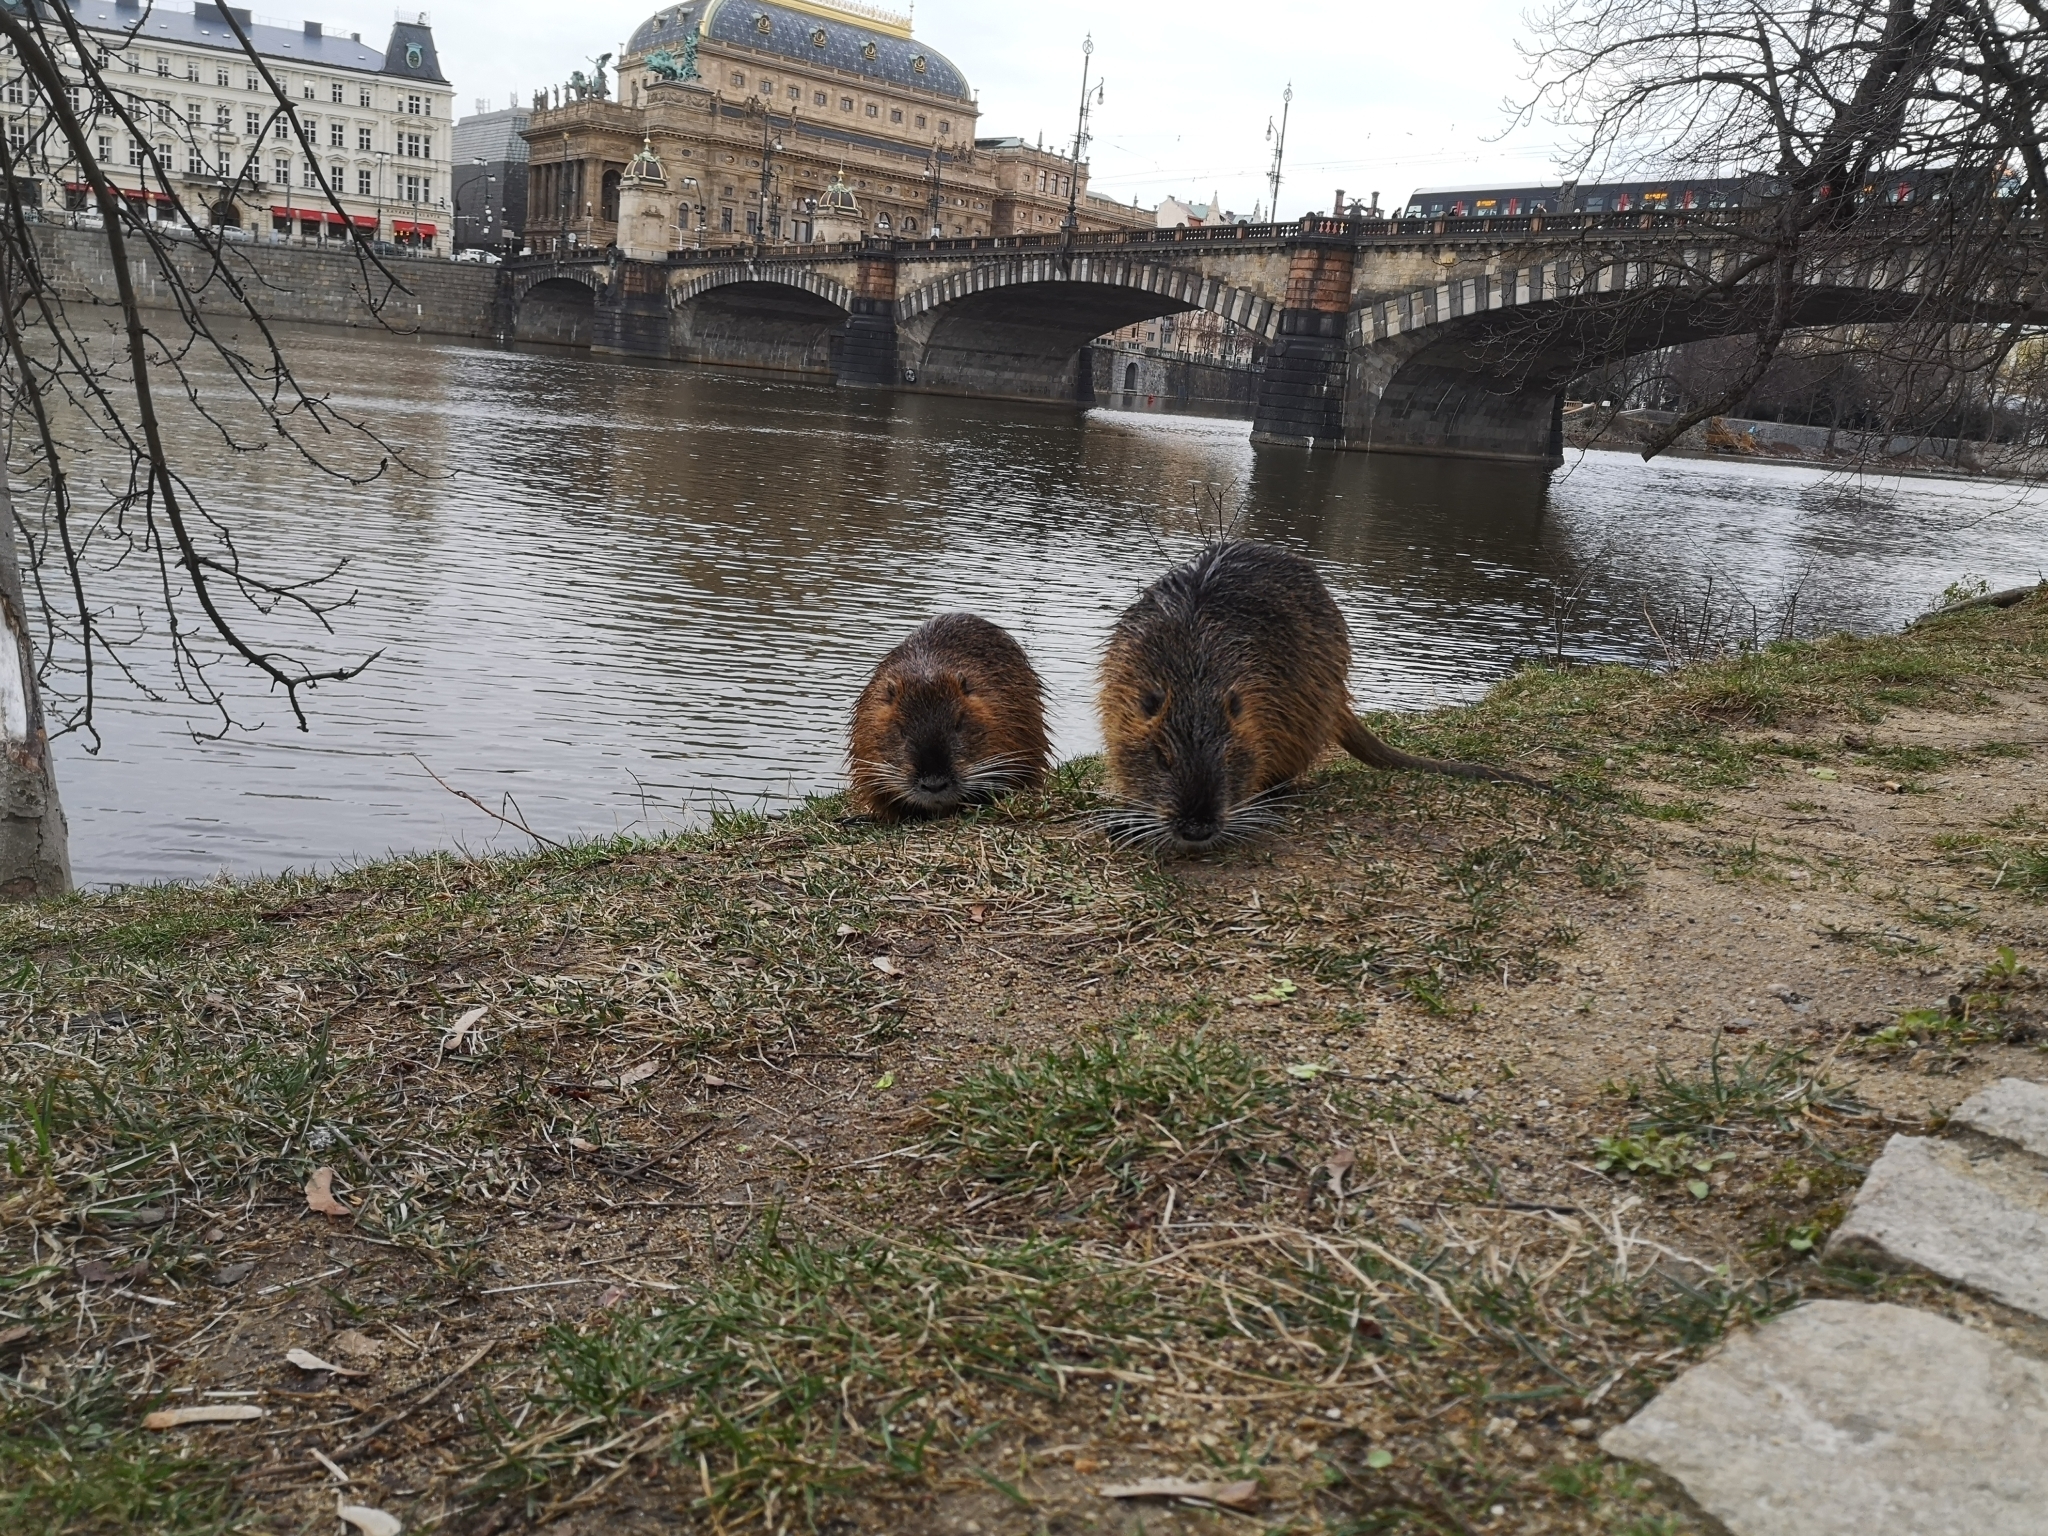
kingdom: Animalia
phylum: Chordata
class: Mammalia
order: Rodentia
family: Myocastoridae
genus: Myocastor
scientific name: Myocastor coypus
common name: Coypu
